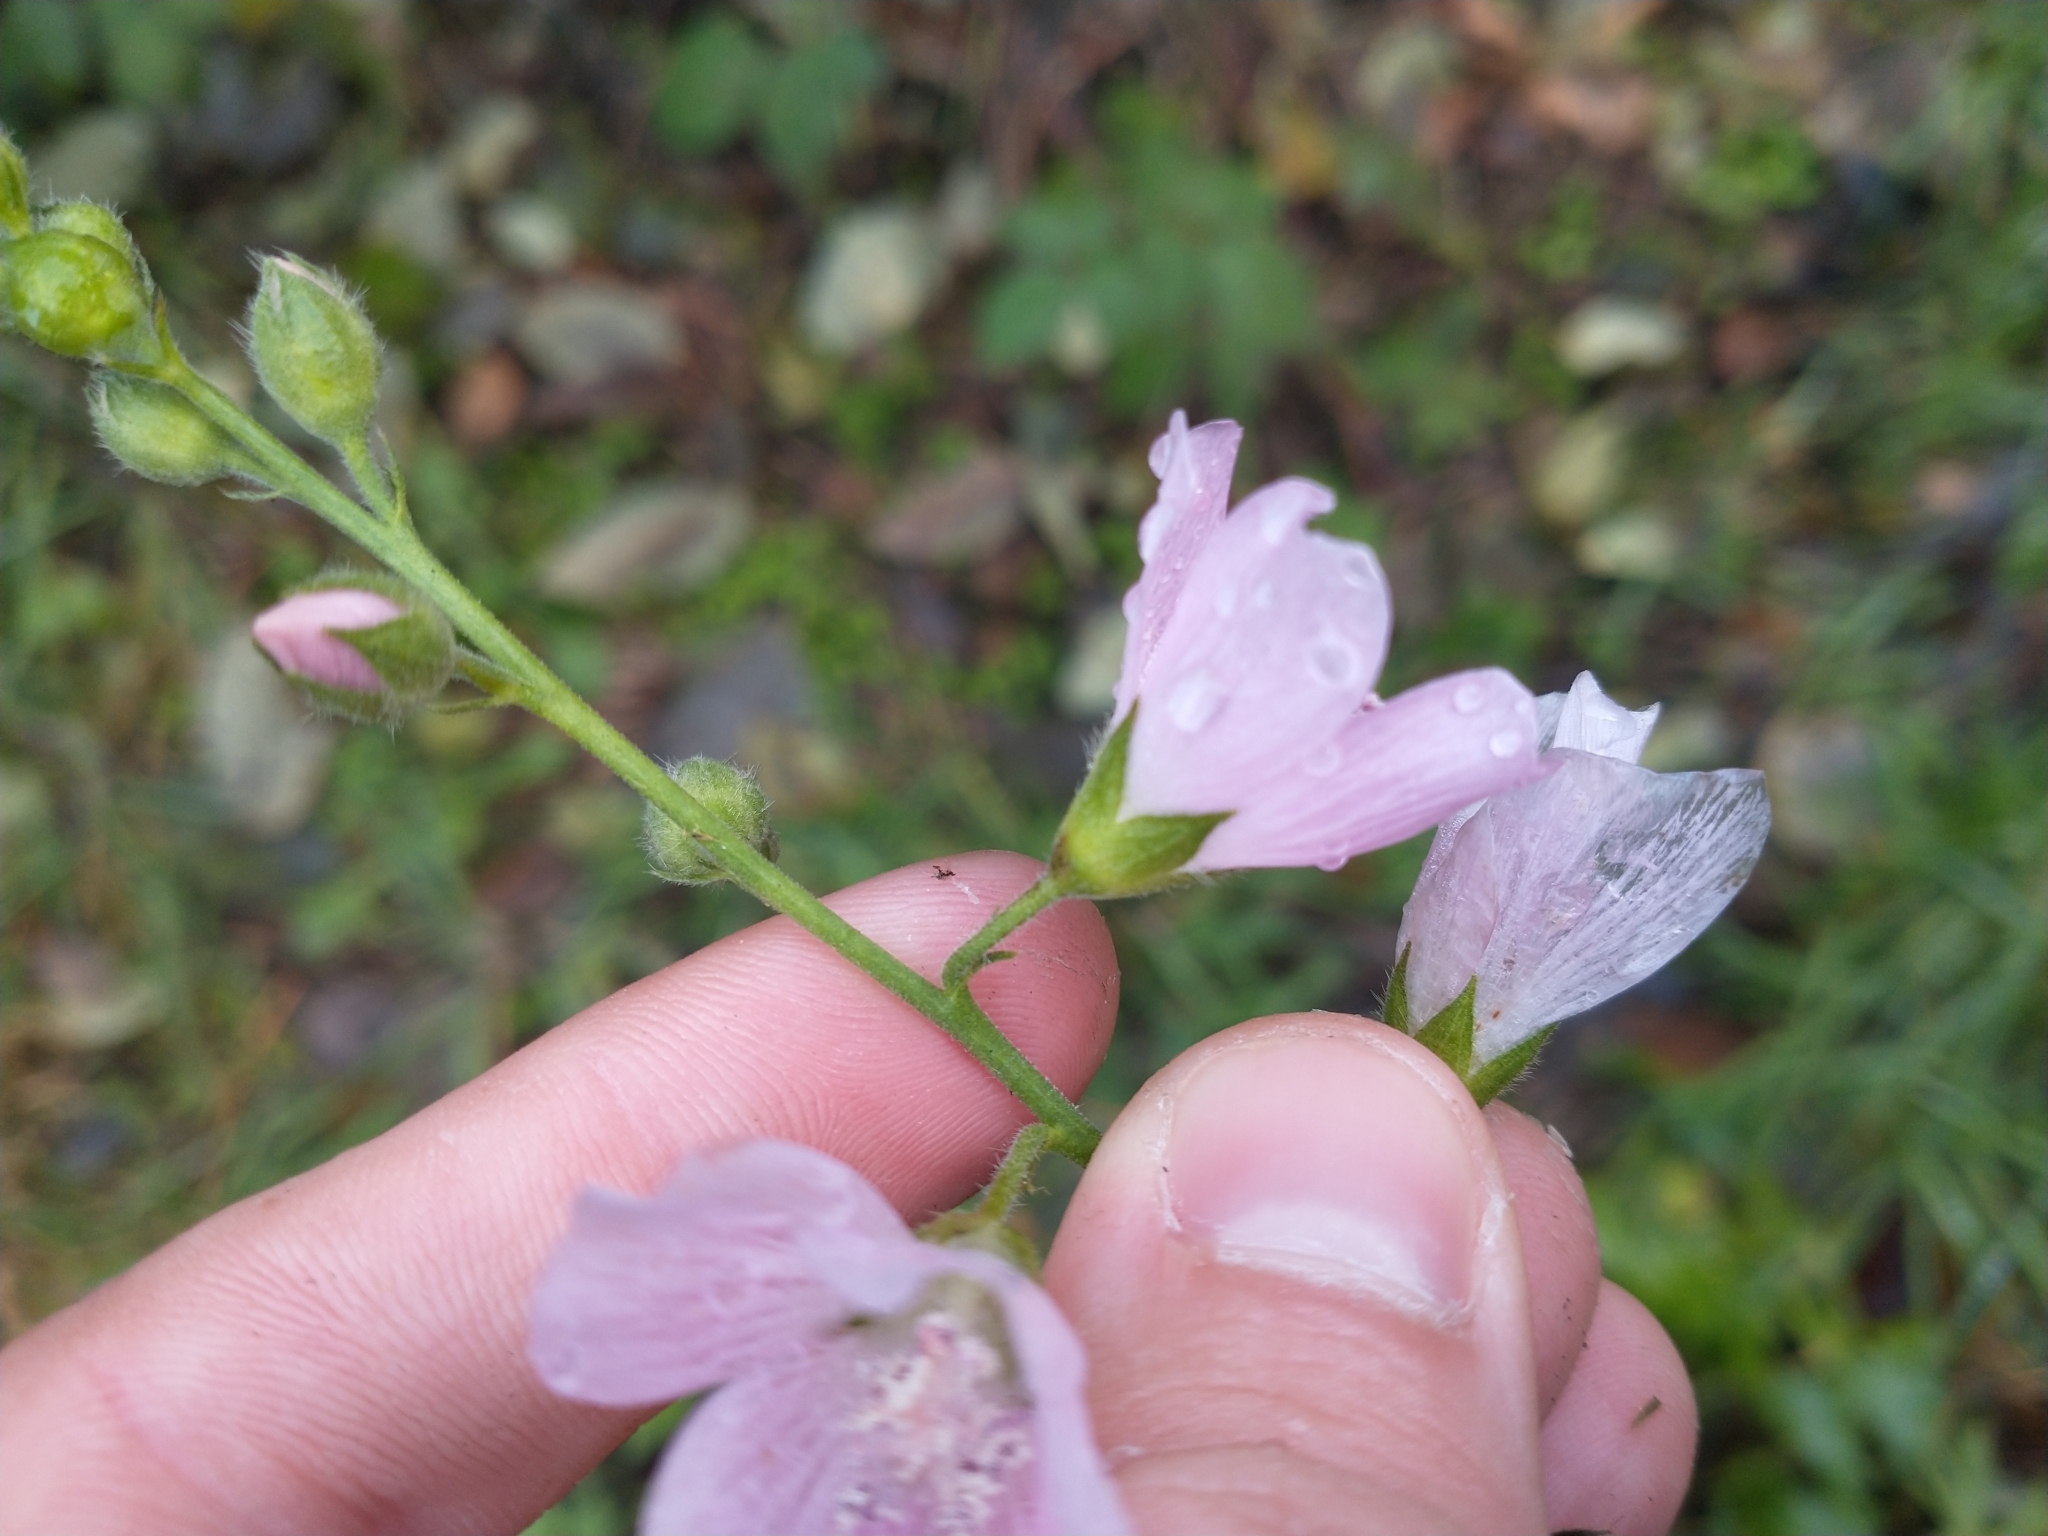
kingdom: Plantae
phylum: Tracheophyta
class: Magnoliopsida
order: Malvales
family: Malvaceae
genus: Sidalcea
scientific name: Sidalcea campestris
